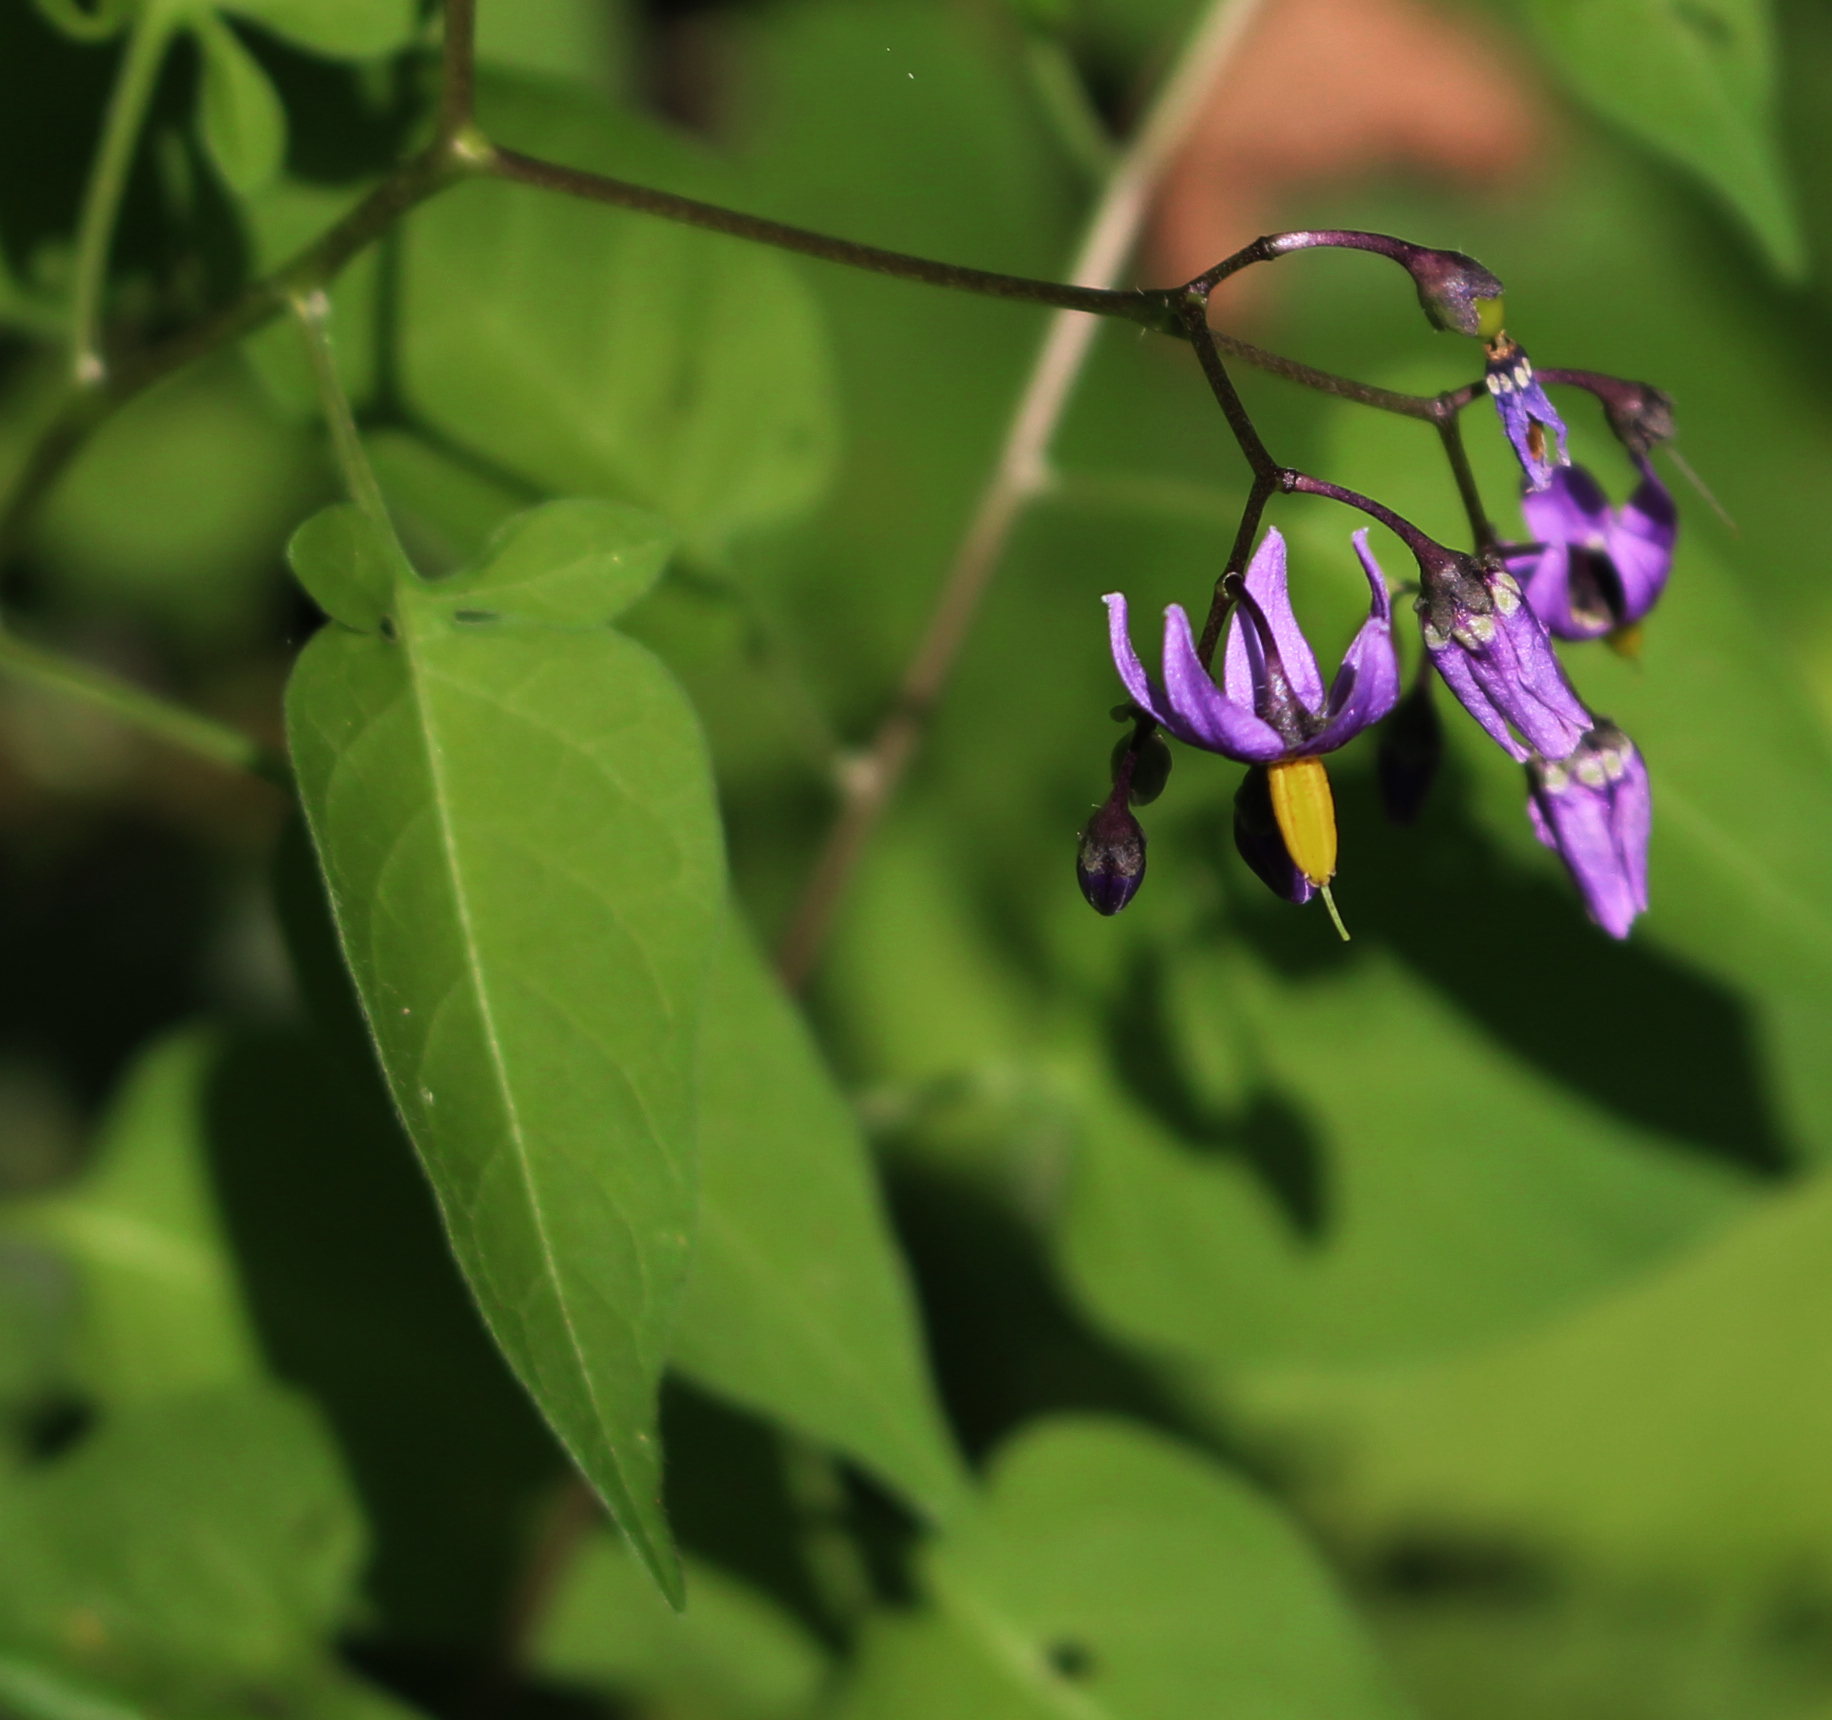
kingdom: Plantae
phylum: Tracheophyta
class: Magnoliopsida
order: Solanales
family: Solanaceae
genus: Solanum
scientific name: Solanum dulcamara
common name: Climbing nightshade
